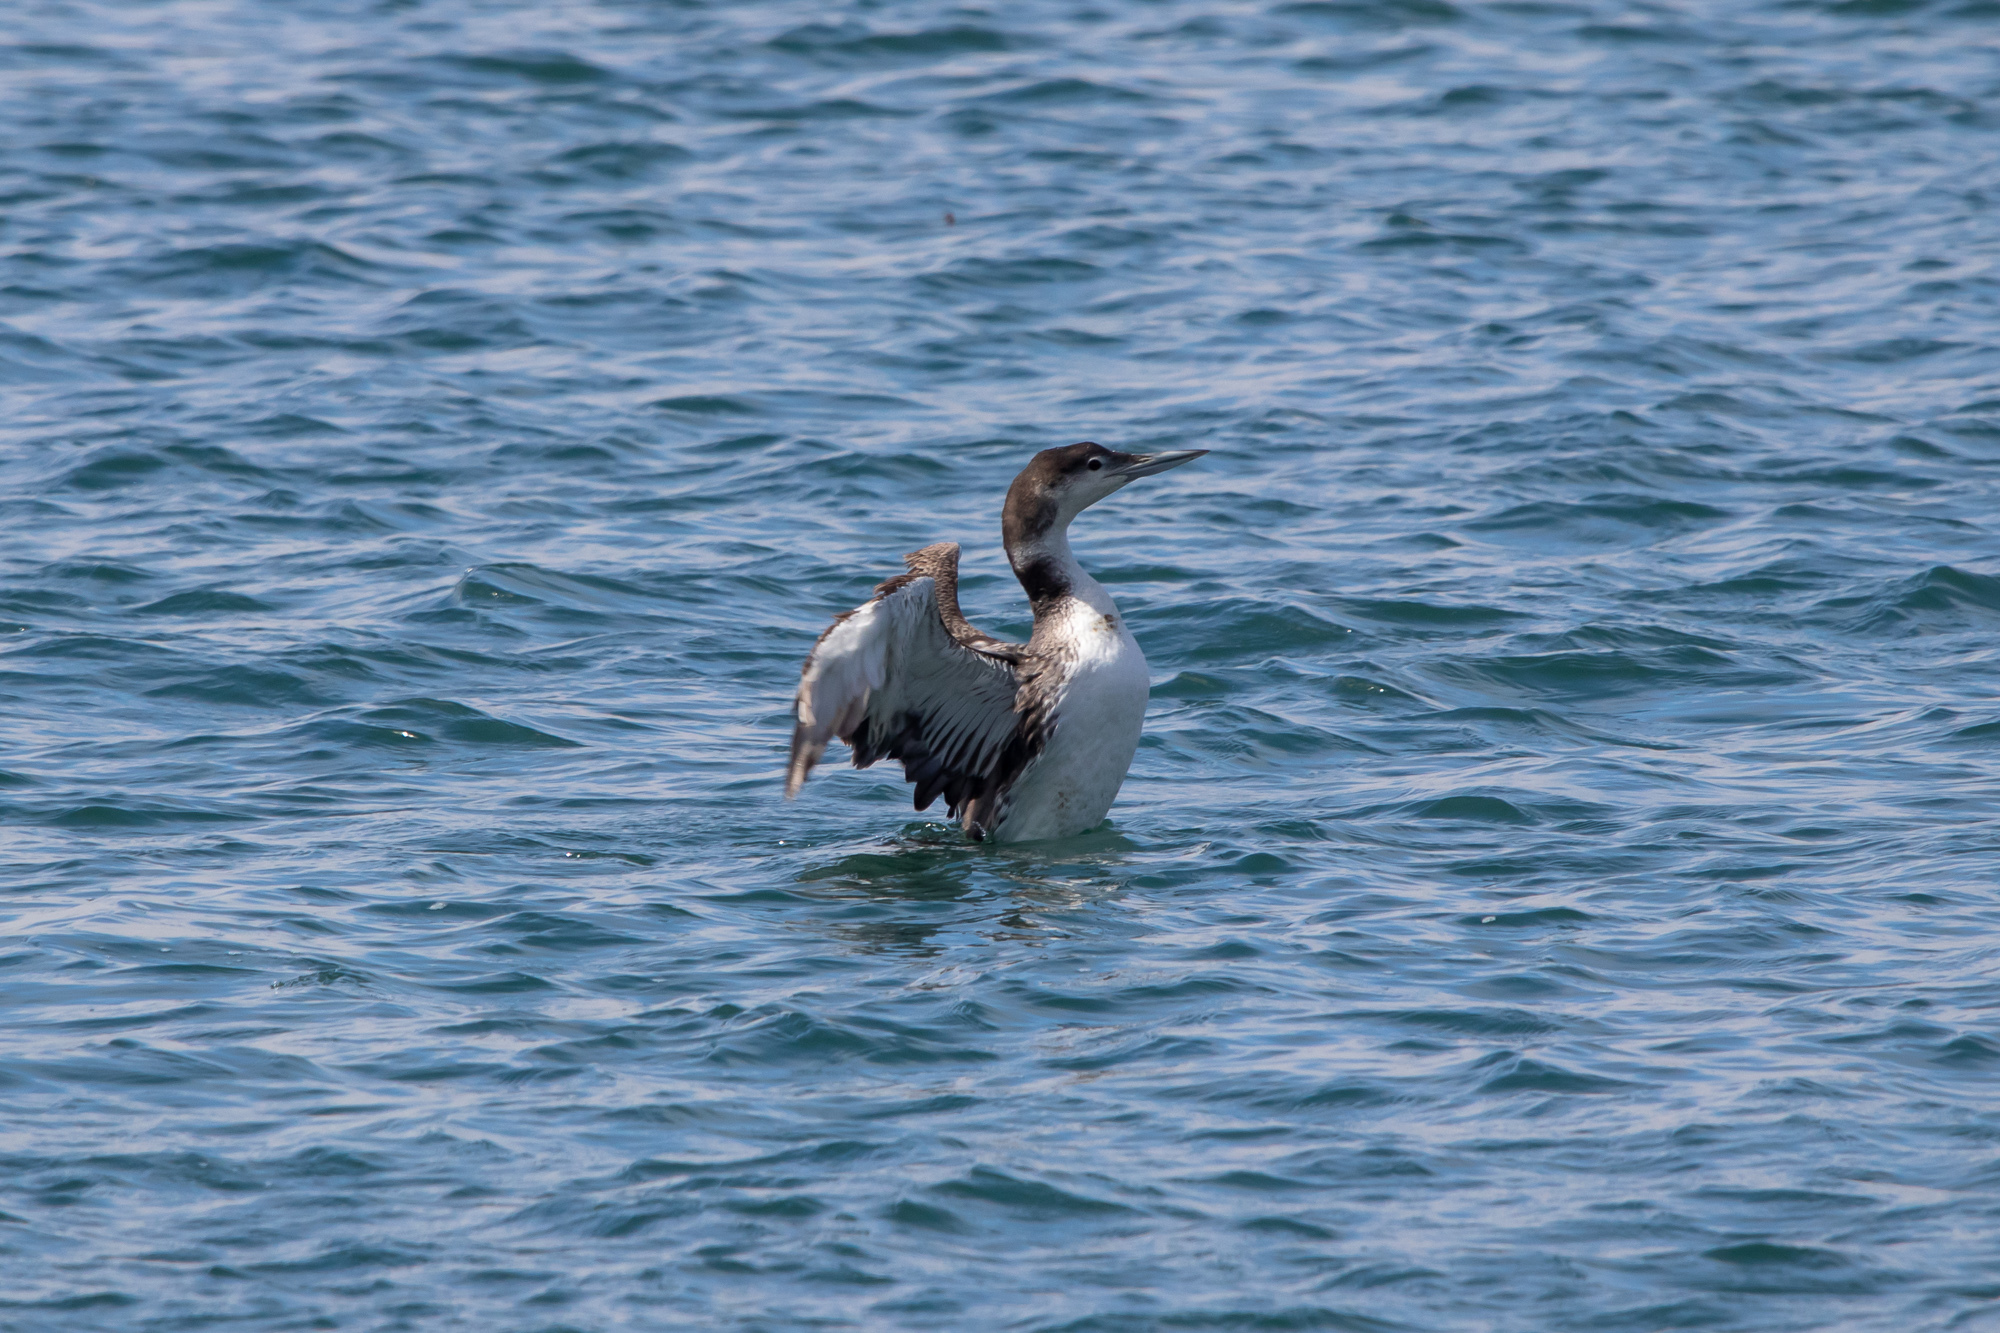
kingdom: Animalia
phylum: Chordata
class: Aves
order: Gaviiformes
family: Gaviidae
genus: Gavia
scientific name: Gavia immer
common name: Common loon
